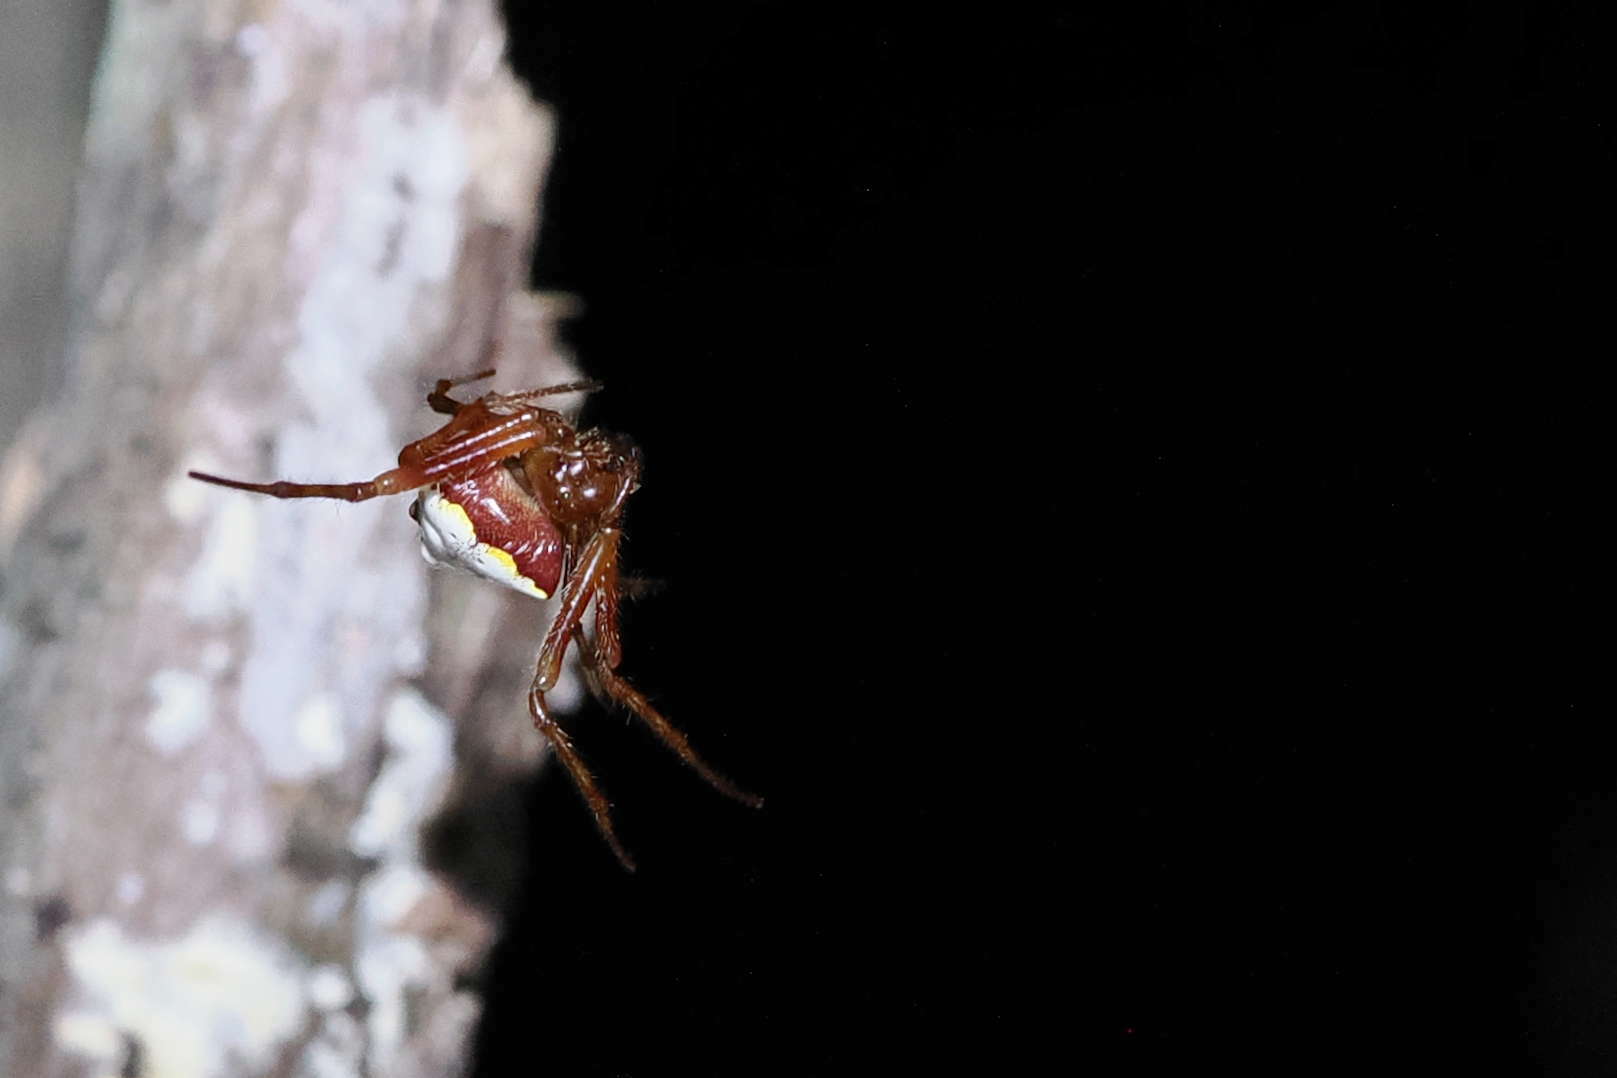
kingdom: Animalia
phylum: Arthropoda
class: Arachnida
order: Araneae
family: Araneidae
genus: Verrucosa
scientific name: Verrucosa arenata
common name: Orb weavers
